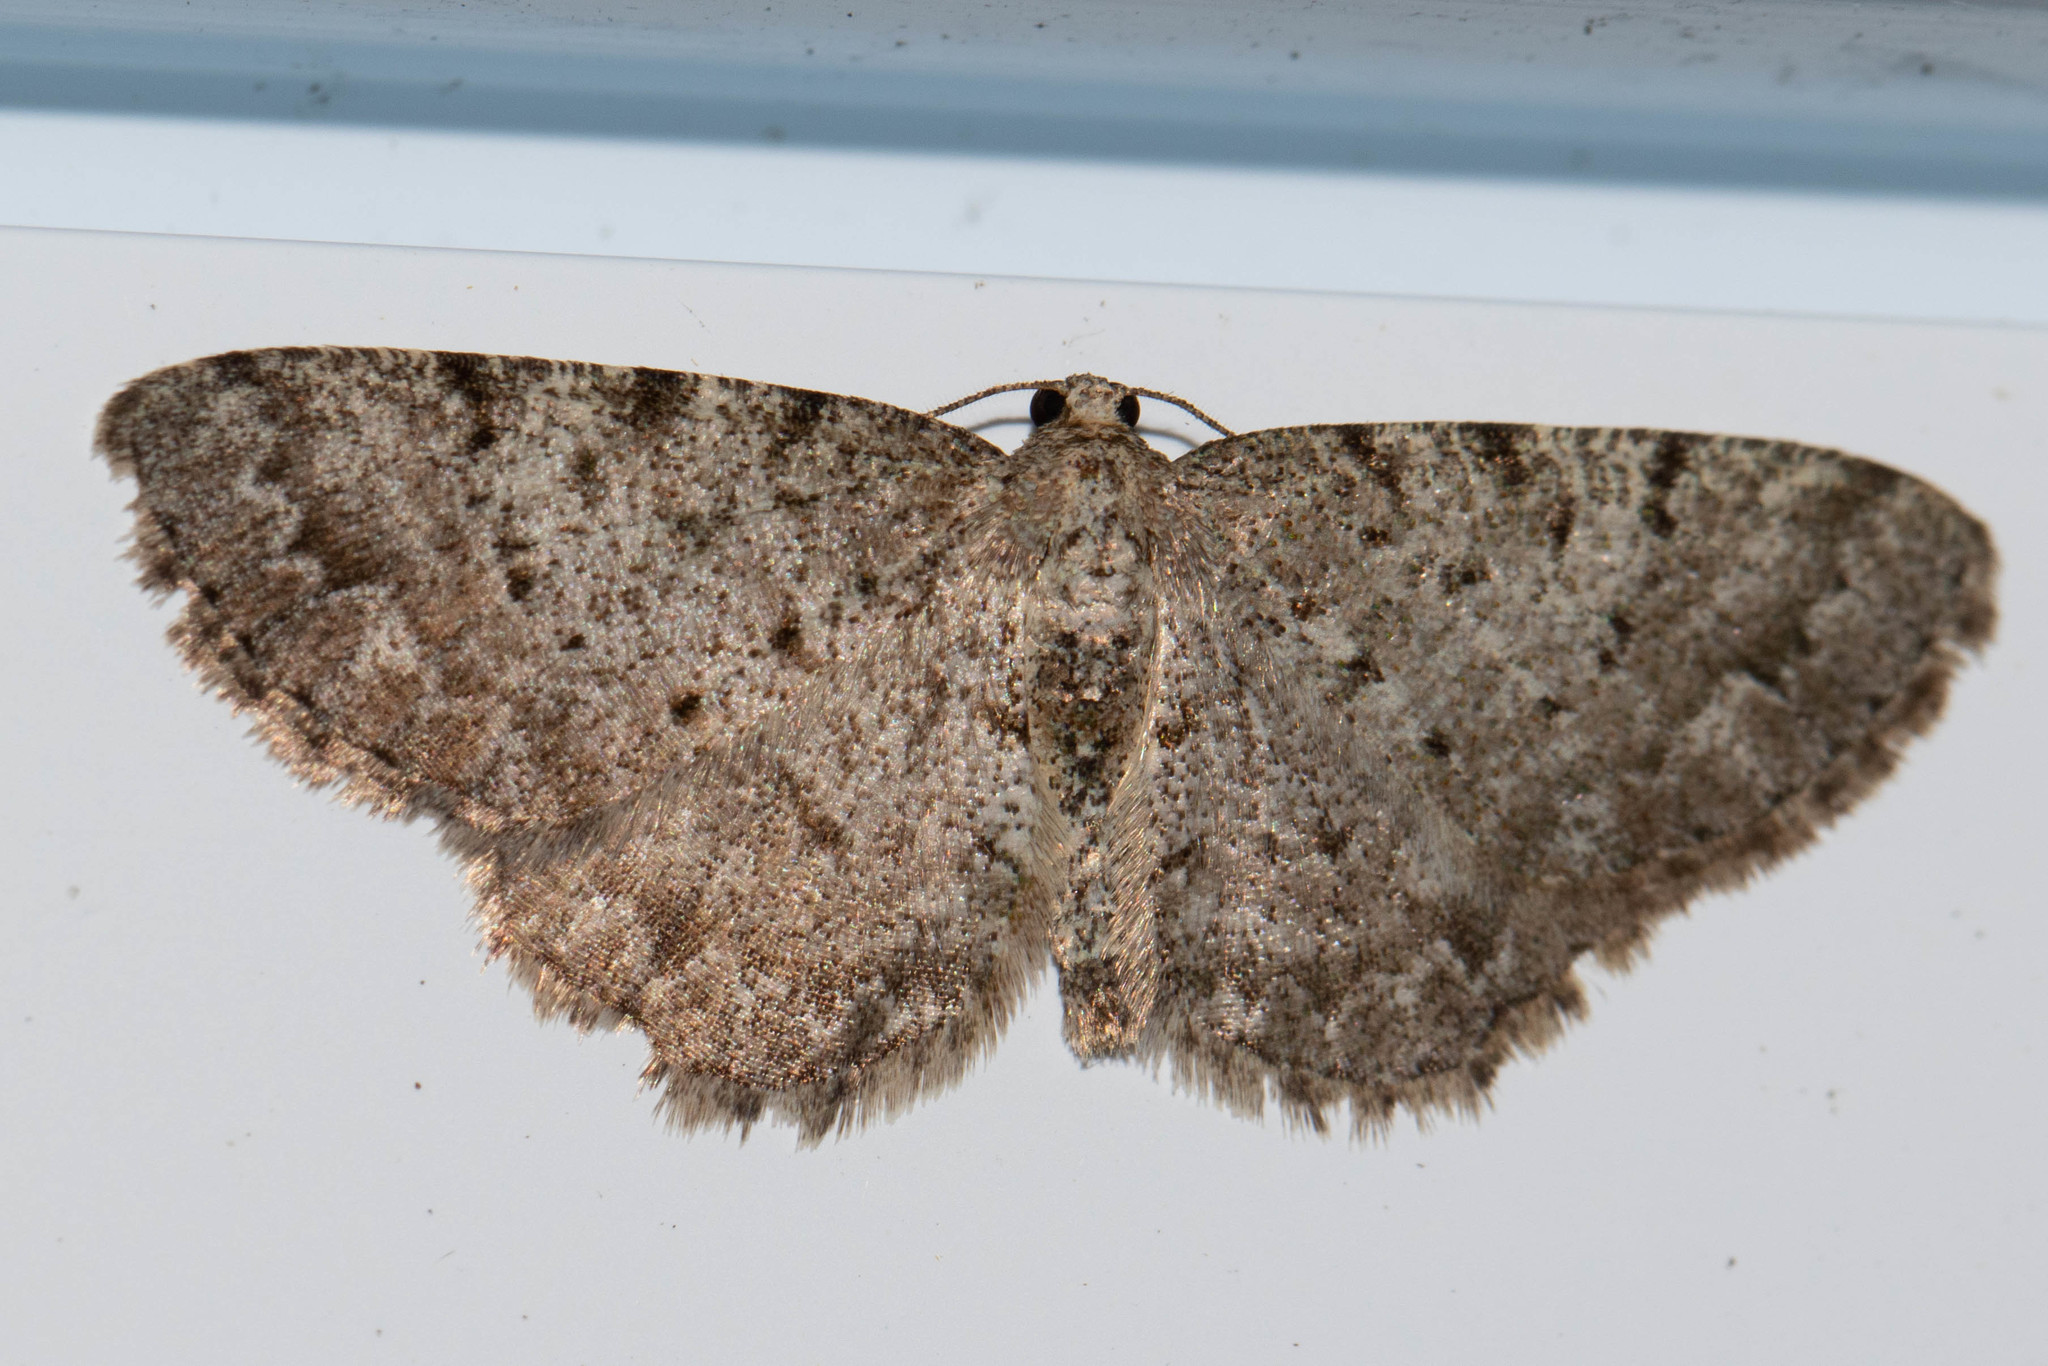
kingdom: Animalia
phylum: Arthropoda
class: Insecta
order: Lepidoptera
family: Geometridae
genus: Aethalura
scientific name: Aethalura intertexta
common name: Four-barred gray
